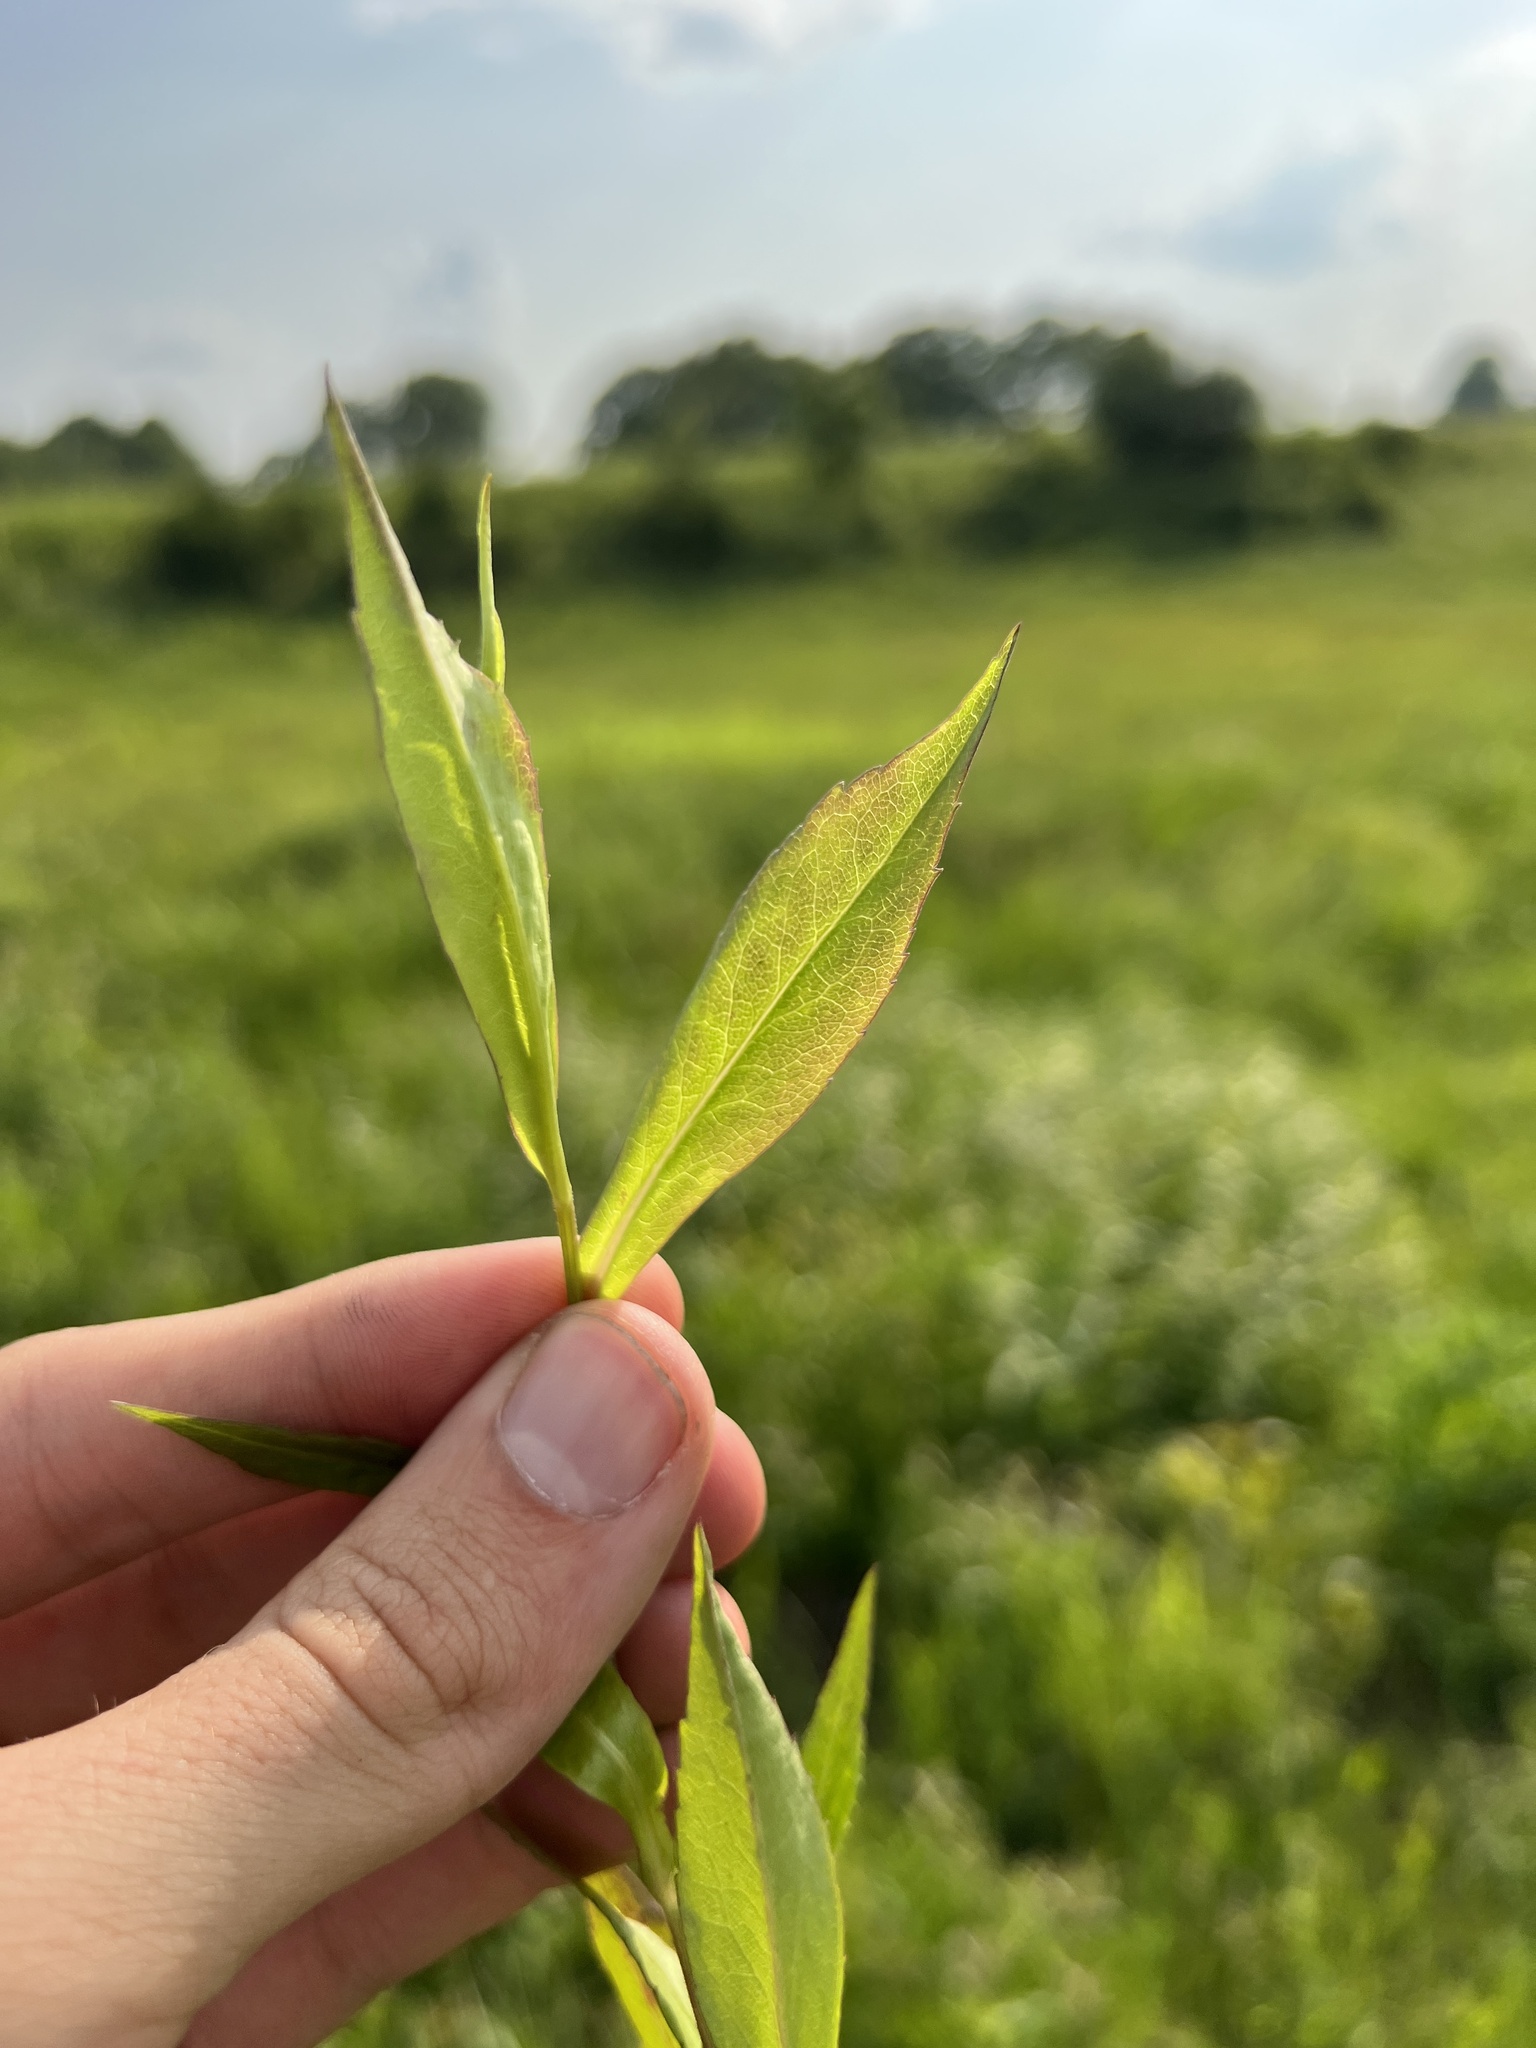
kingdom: Plantae
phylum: Tracheophyta
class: Magnoliopsida
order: Asterales
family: Asteraceae
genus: Symphyotrichum
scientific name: Symphyotrichum lateriflorum
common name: Calico aster
